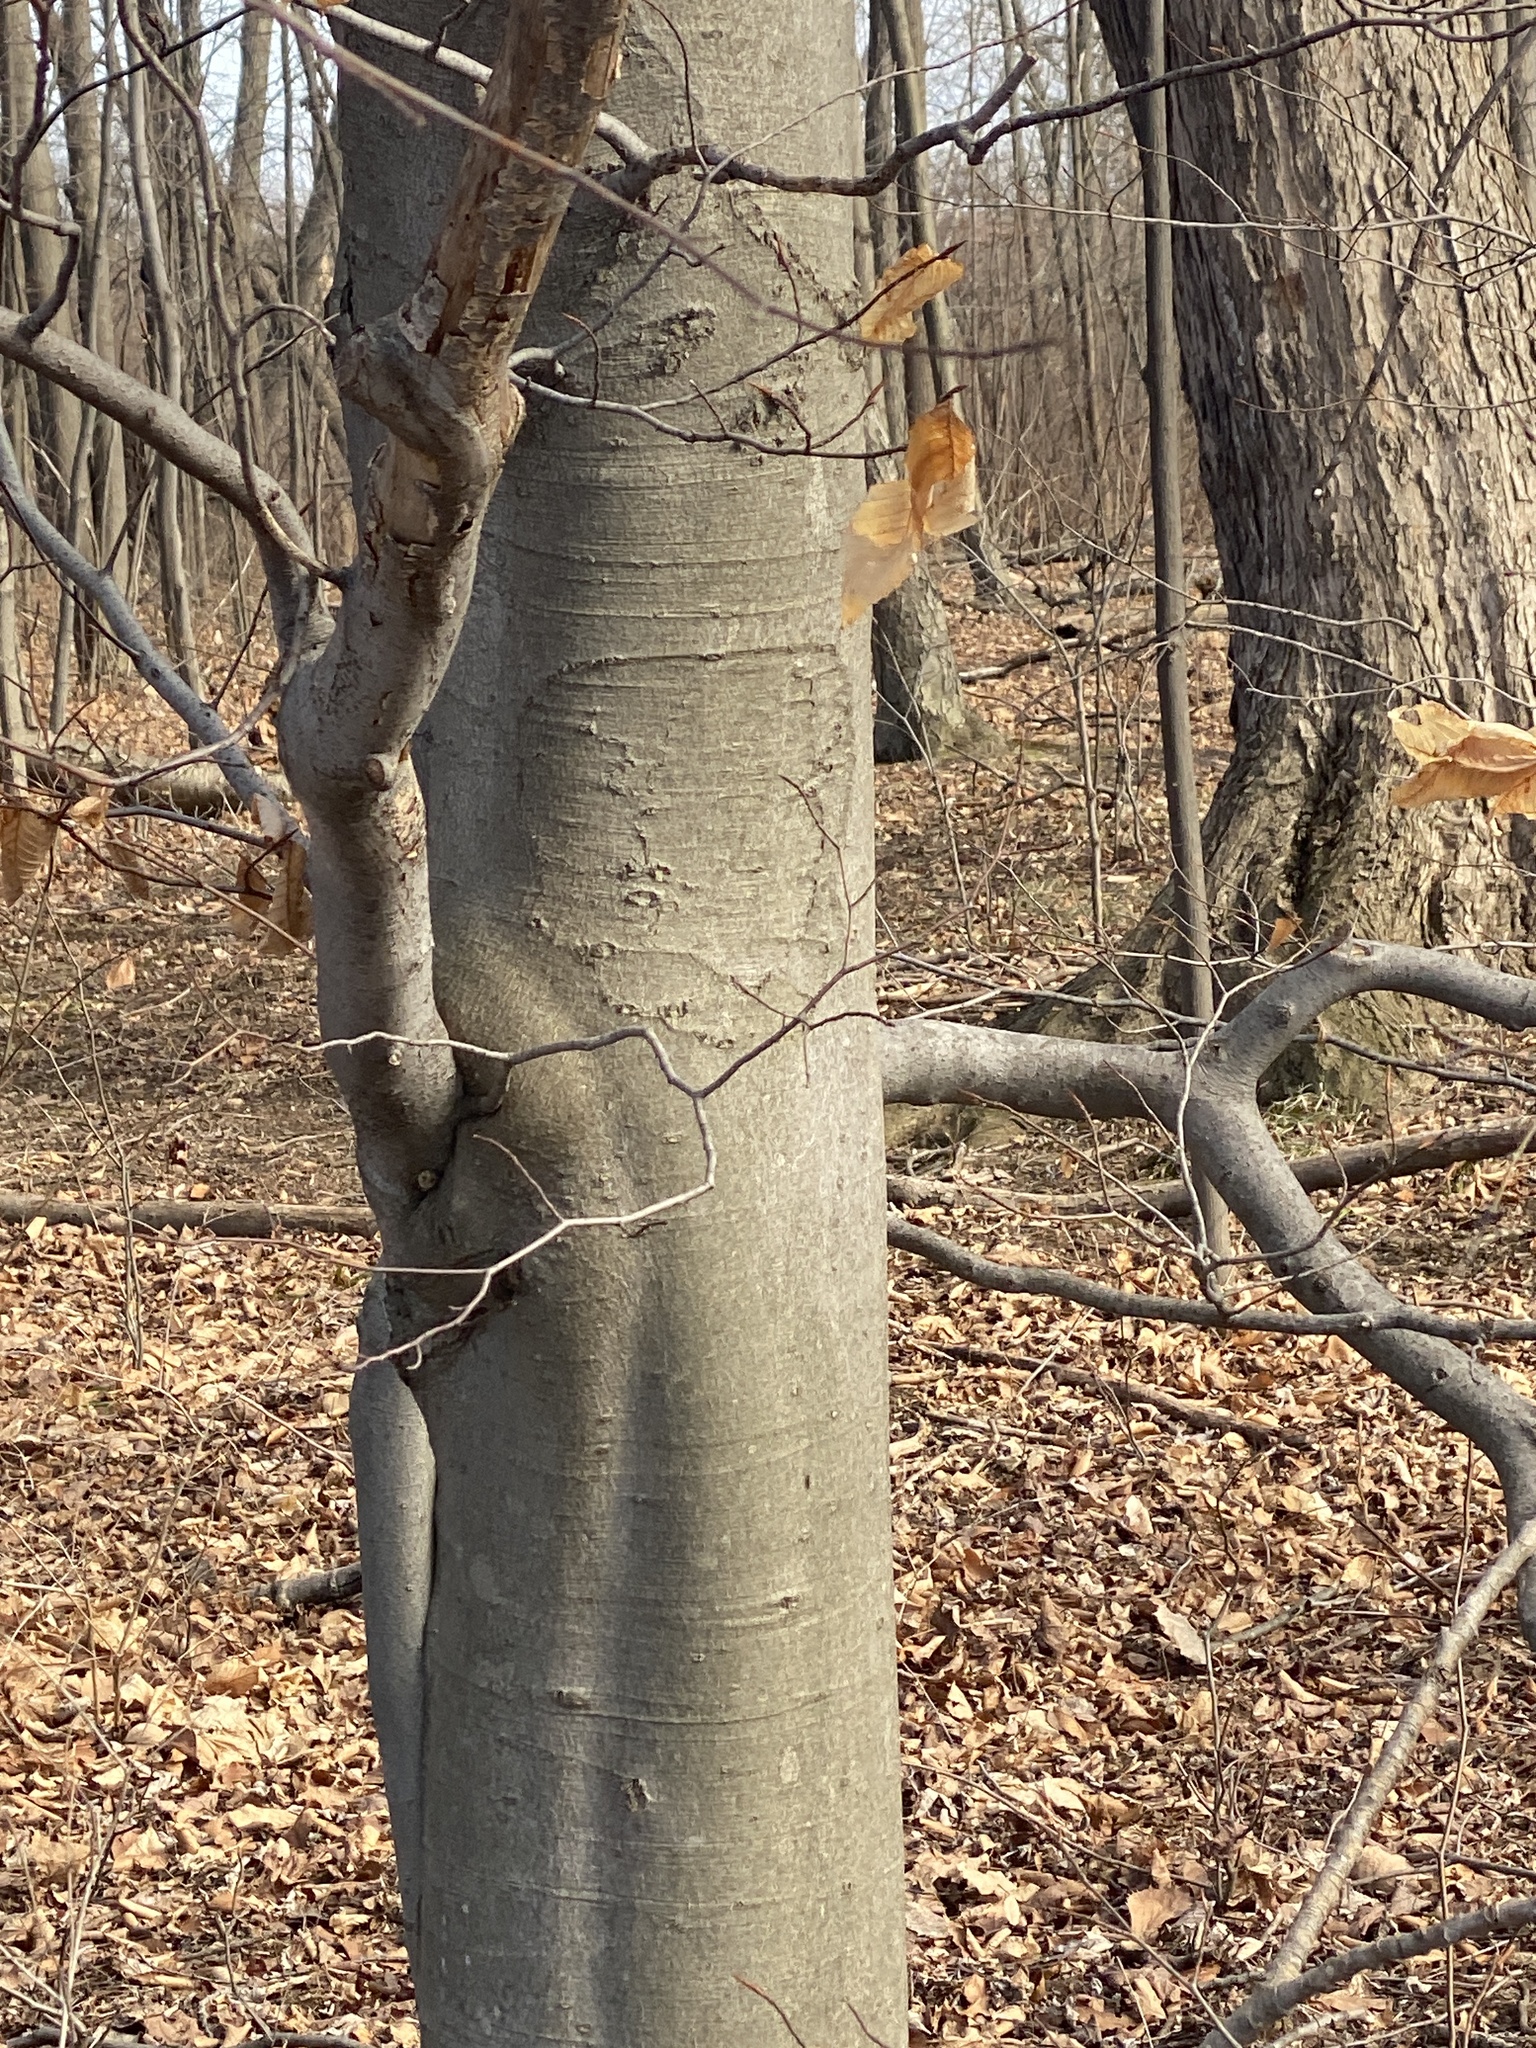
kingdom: Plantae
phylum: Tracheophyta
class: Magnoliopsida
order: Fagales
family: Fagaceae
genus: Fagus
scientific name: Fagus grandifolia
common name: American beech
